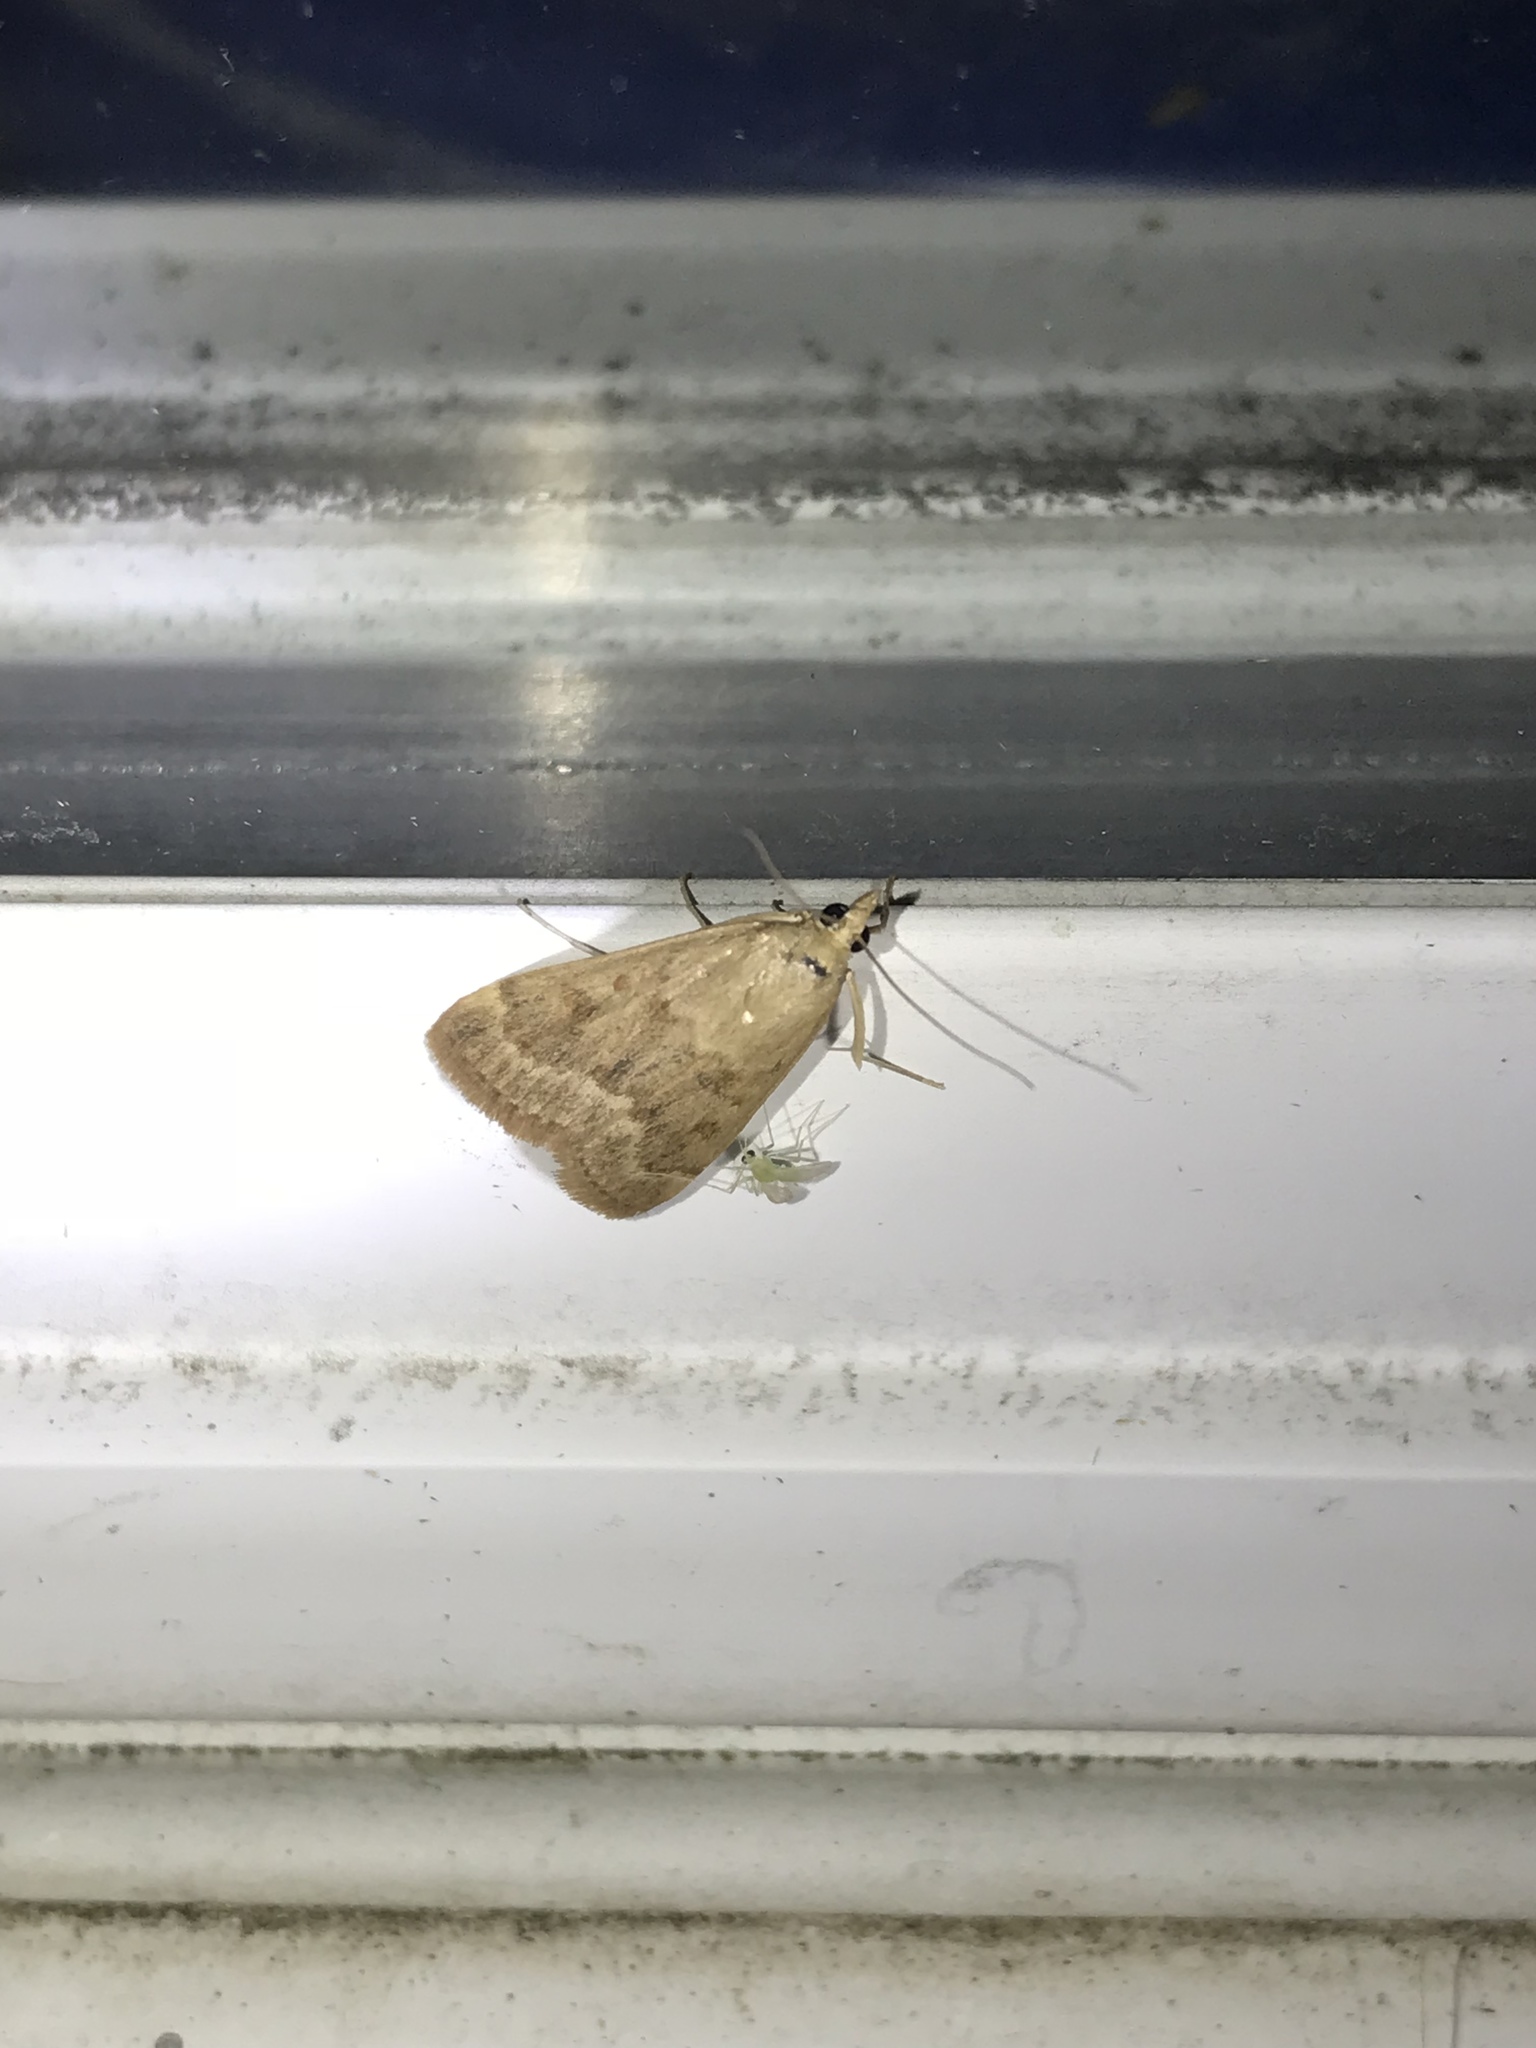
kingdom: Animalia
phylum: Arthropoda
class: Insecta
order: Lepidoptera
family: Crambidae
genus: Achyra
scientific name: Achyra rantalis
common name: Garden webworm
